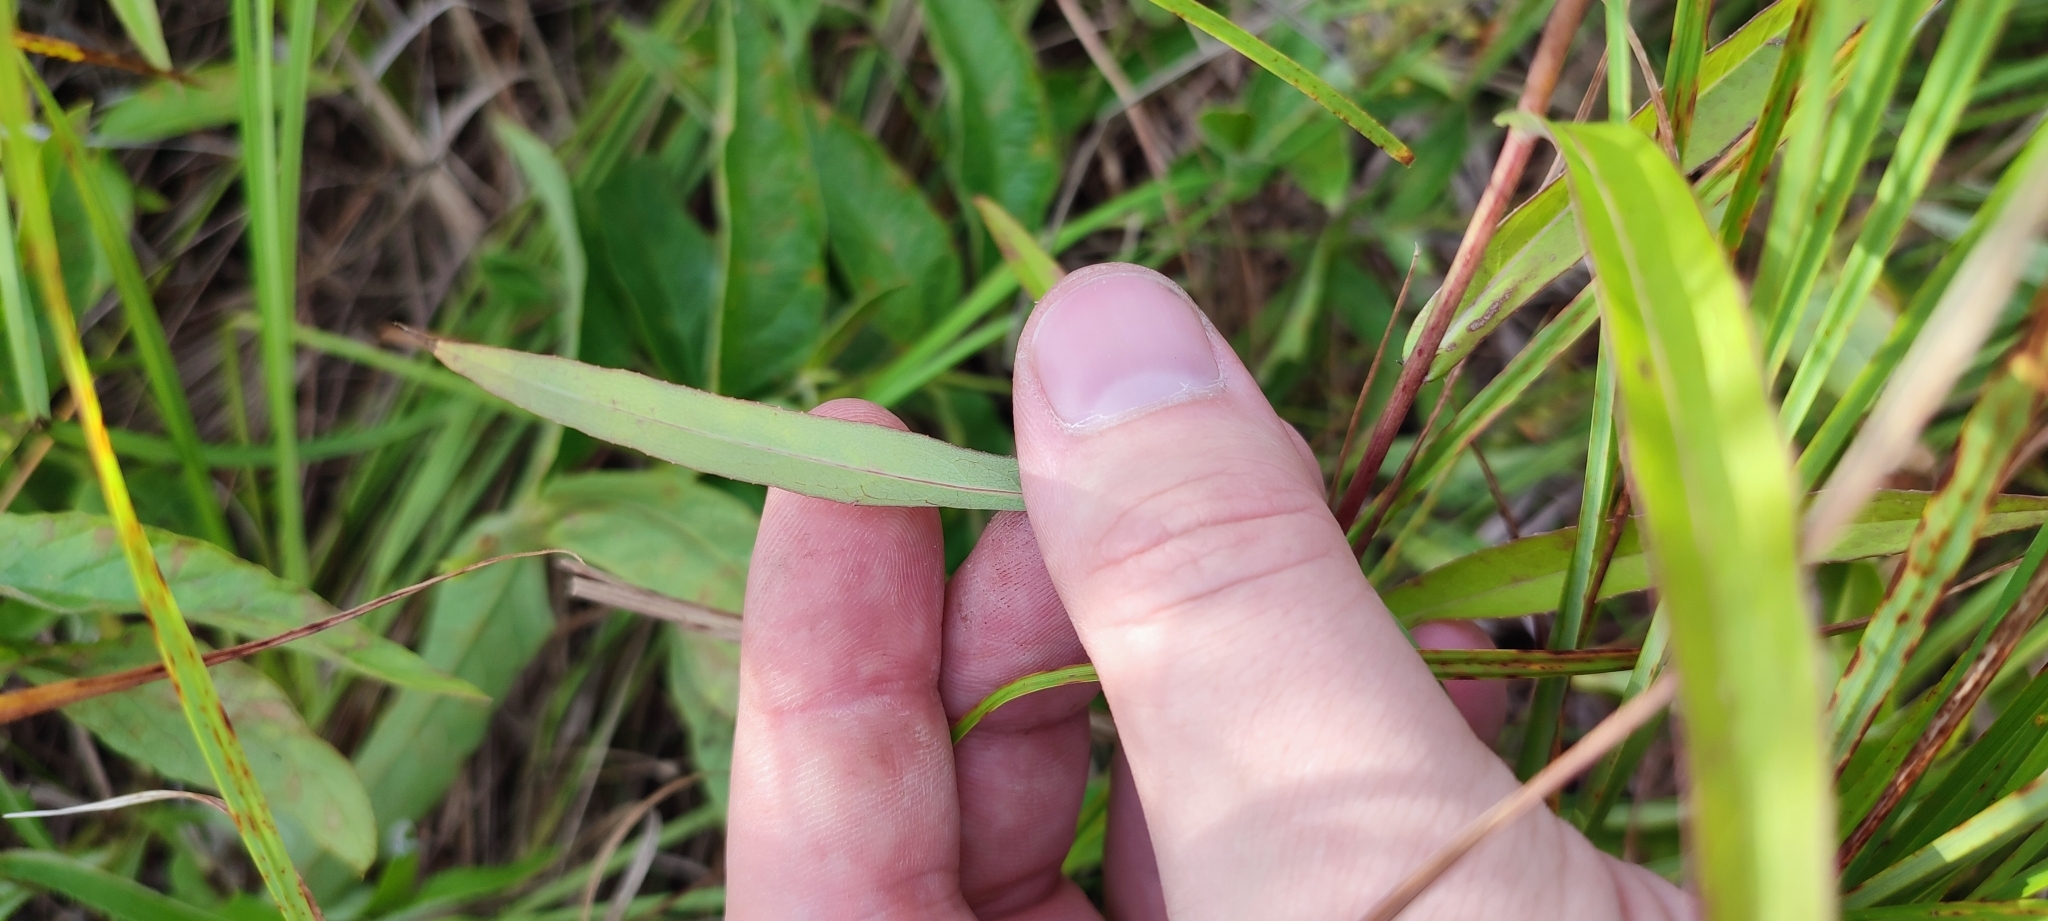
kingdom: Plantae
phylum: Tracheophyta
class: Magnoliopsida
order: Asterales
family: Asteraceae
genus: Lactuca
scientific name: Lactuca sibirica
